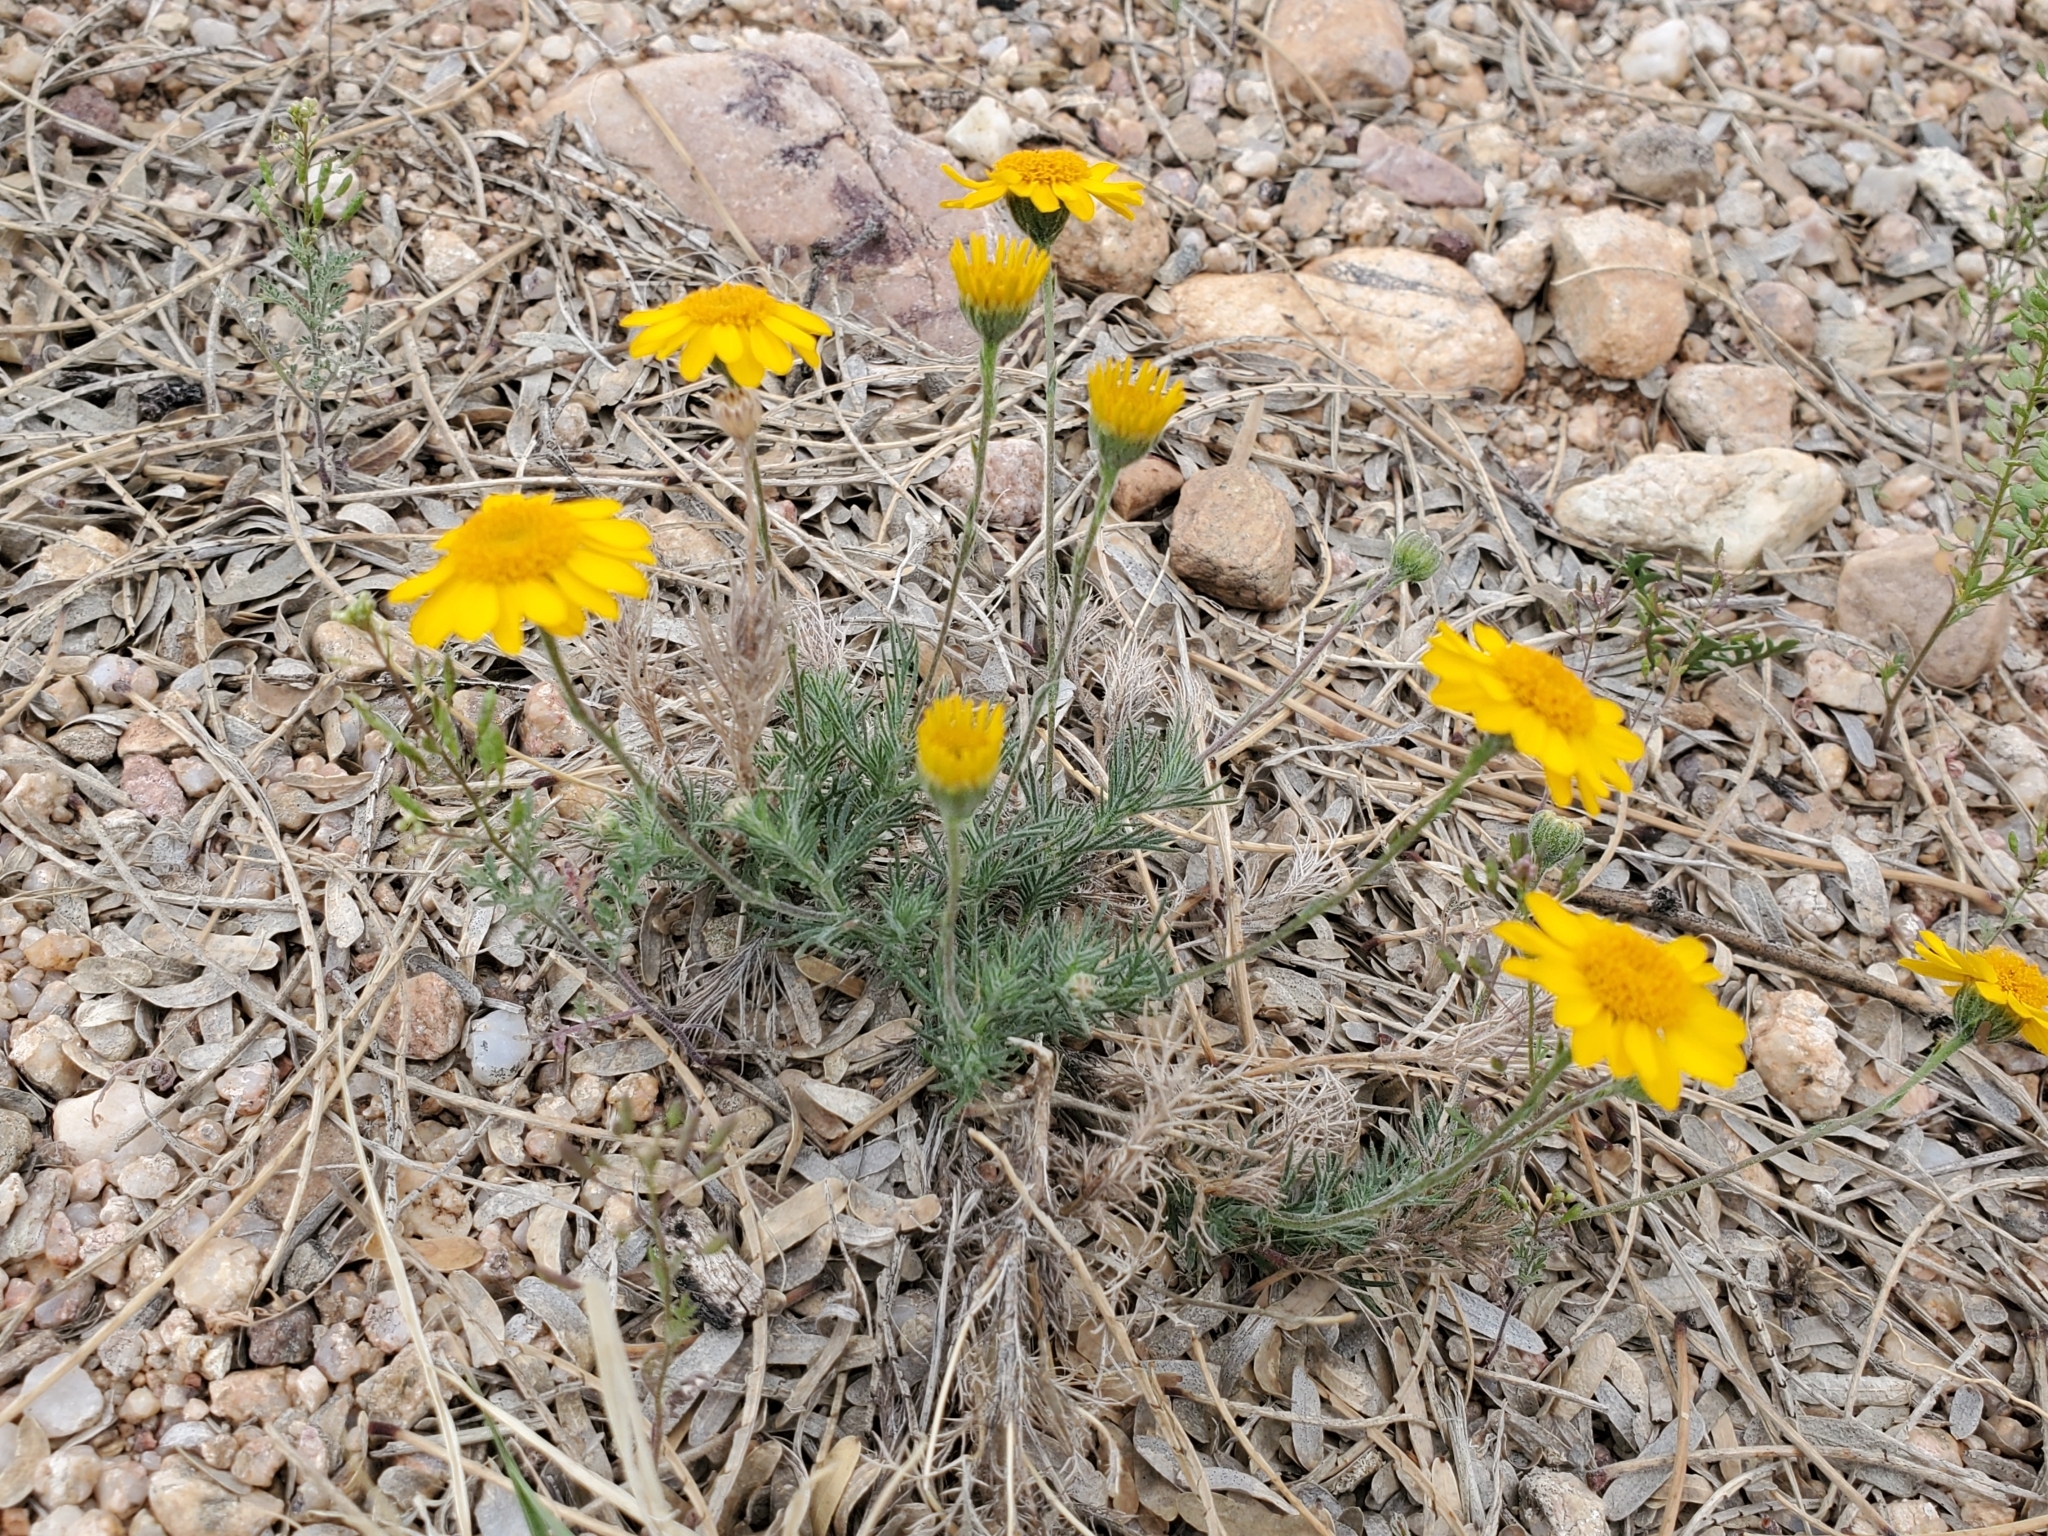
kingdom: Plantae
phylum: Tracheophyta
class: Magnoliopsida
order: Asterales
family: Asteraceae
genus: Thymophylla
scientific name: Thymophylla pentachaeta
